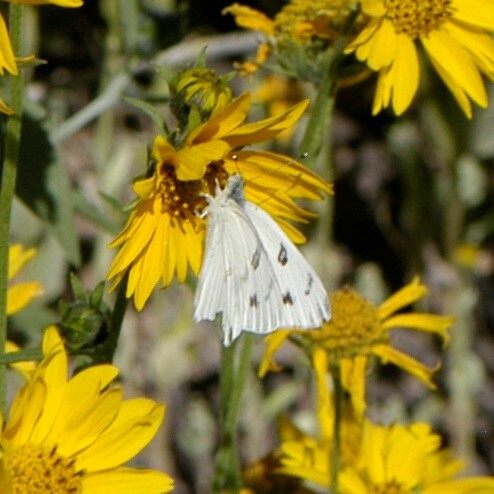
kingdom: Animalia
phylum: Arthropoda
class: Insecta
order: Lepidoptera
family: Pieridae
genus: Pontia
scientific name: Pontia protodice
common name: Checkered white
